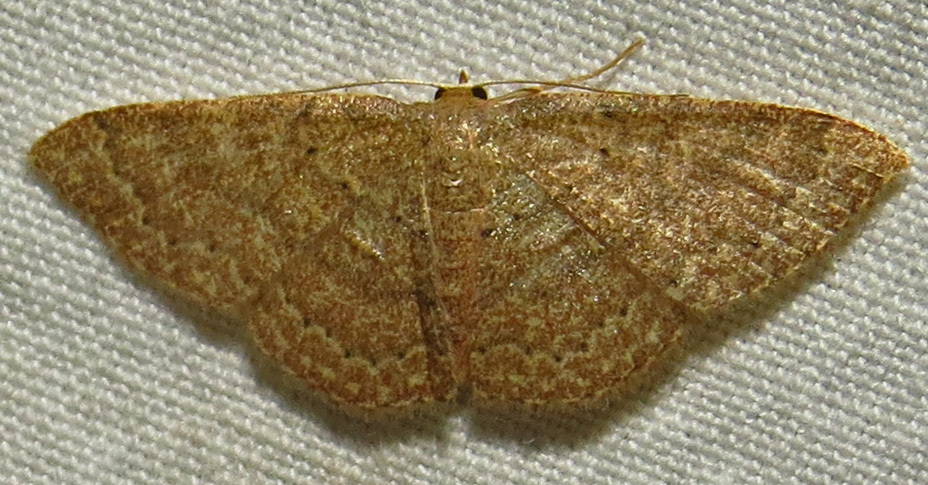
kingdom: Animalia
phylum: Arthropoda
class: Insecta
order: Lepidoptera
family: Geometridae
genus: Pleuroprucha
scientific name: Pleuroprucha insulsaria
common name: Common tan wave
